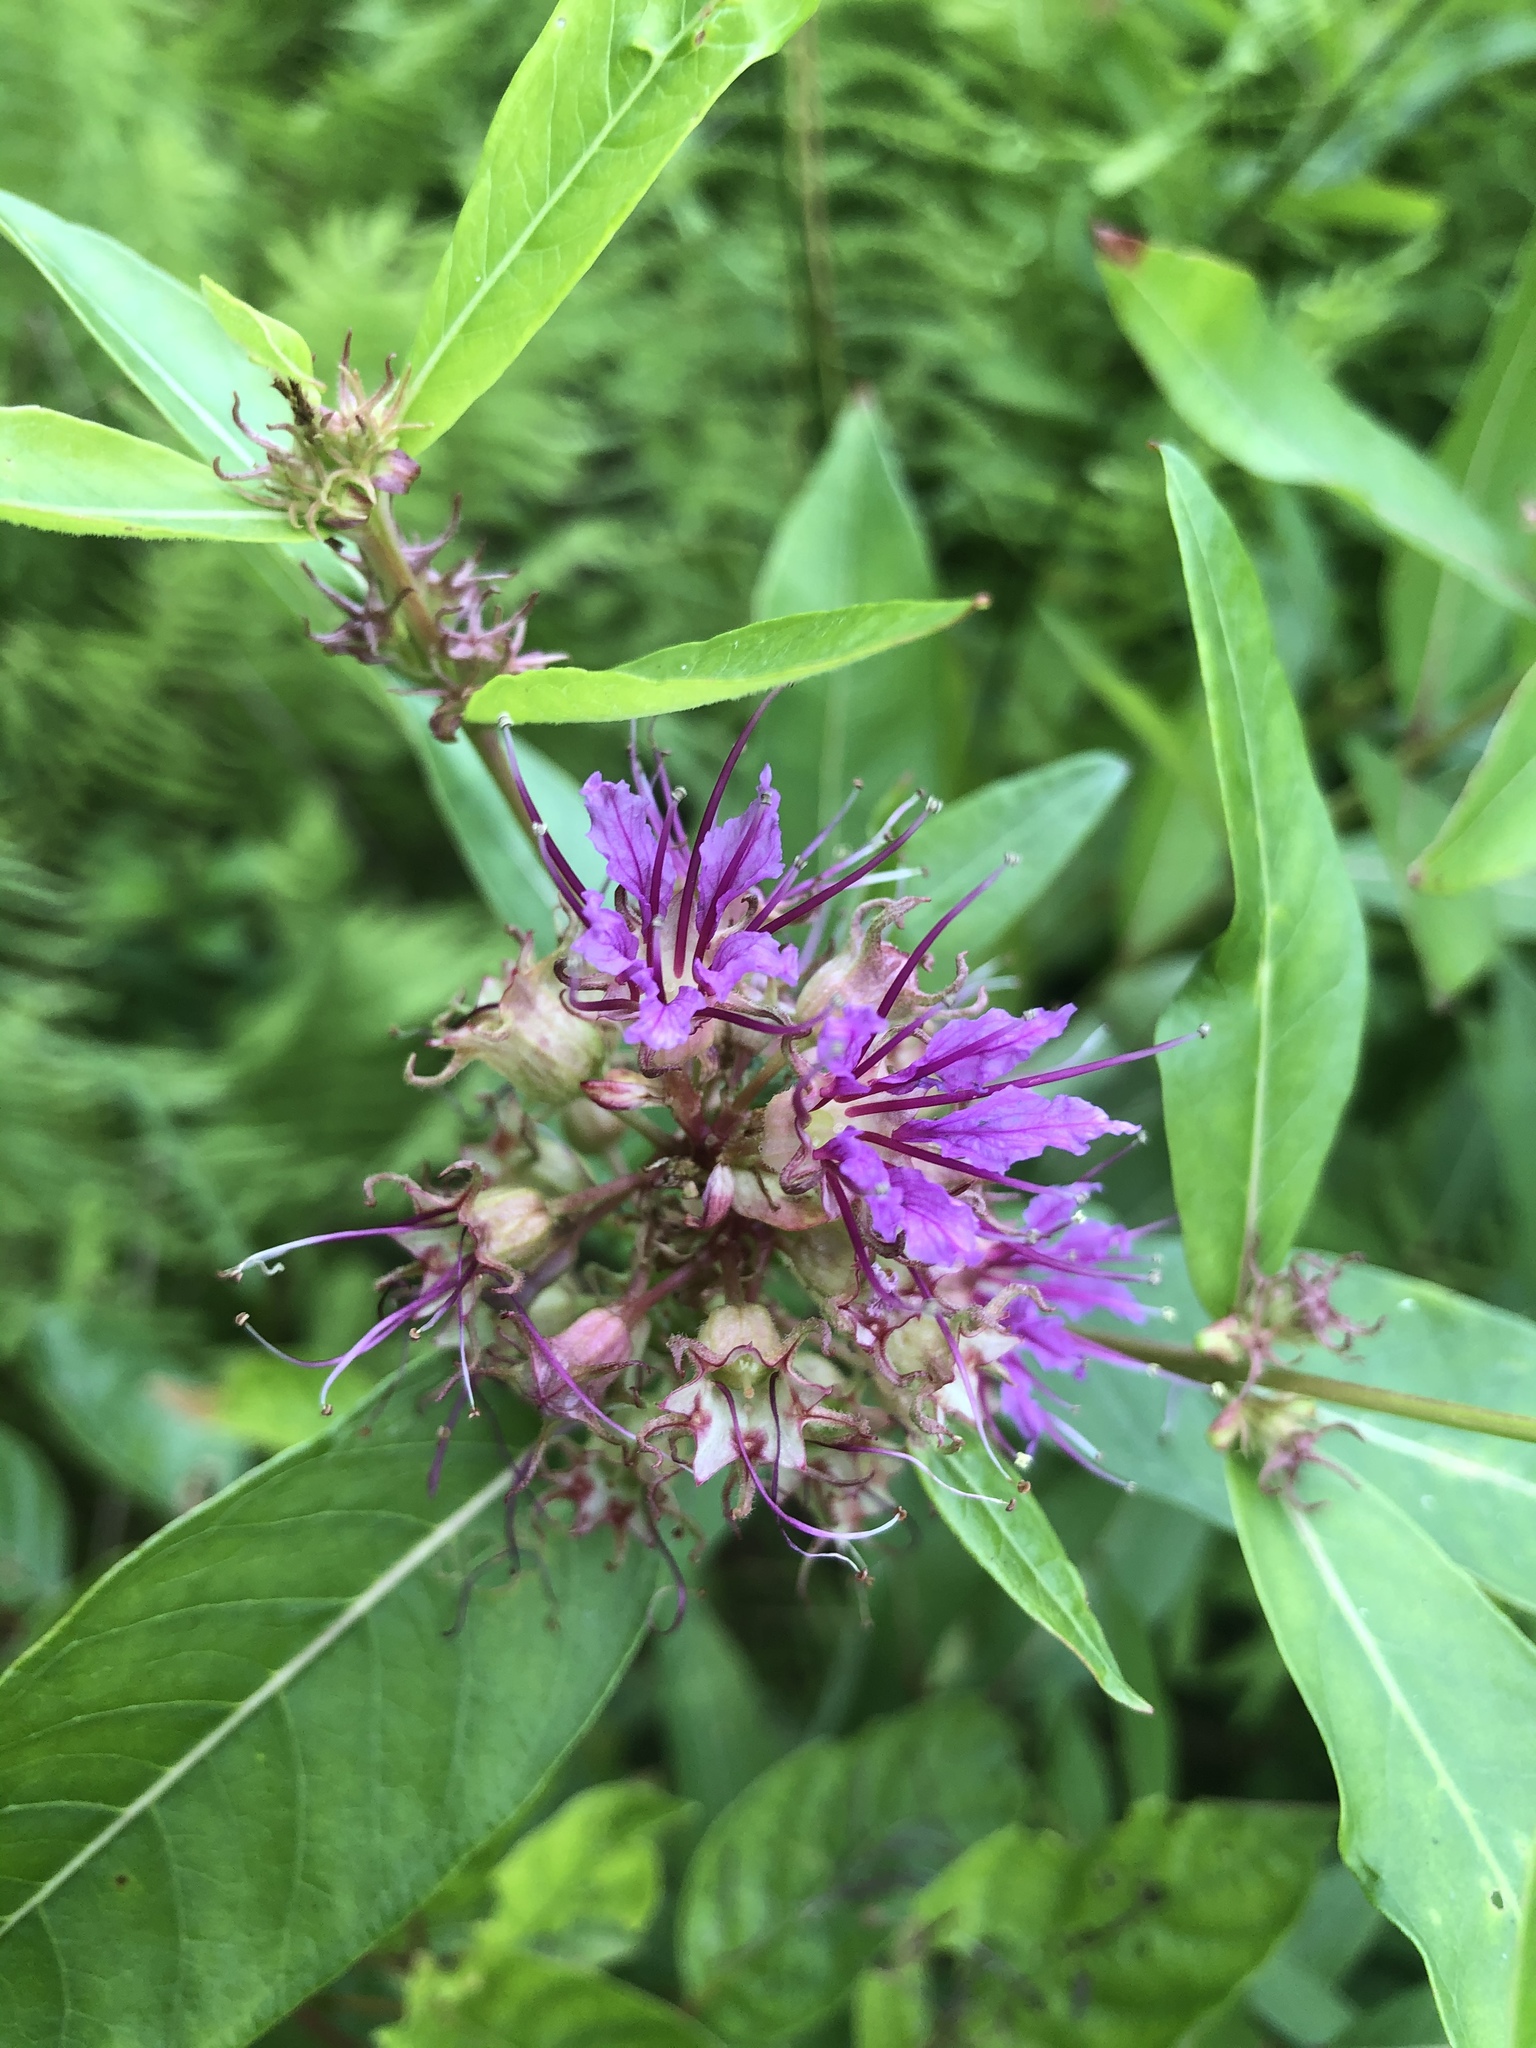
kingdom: Plantae
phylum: Tracheophyta
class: Magnoliopsida
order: Myrtales
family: Lythraceae
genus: Decodon
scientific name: Decodon verticillatus
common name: Hairy swamp loosestrife
